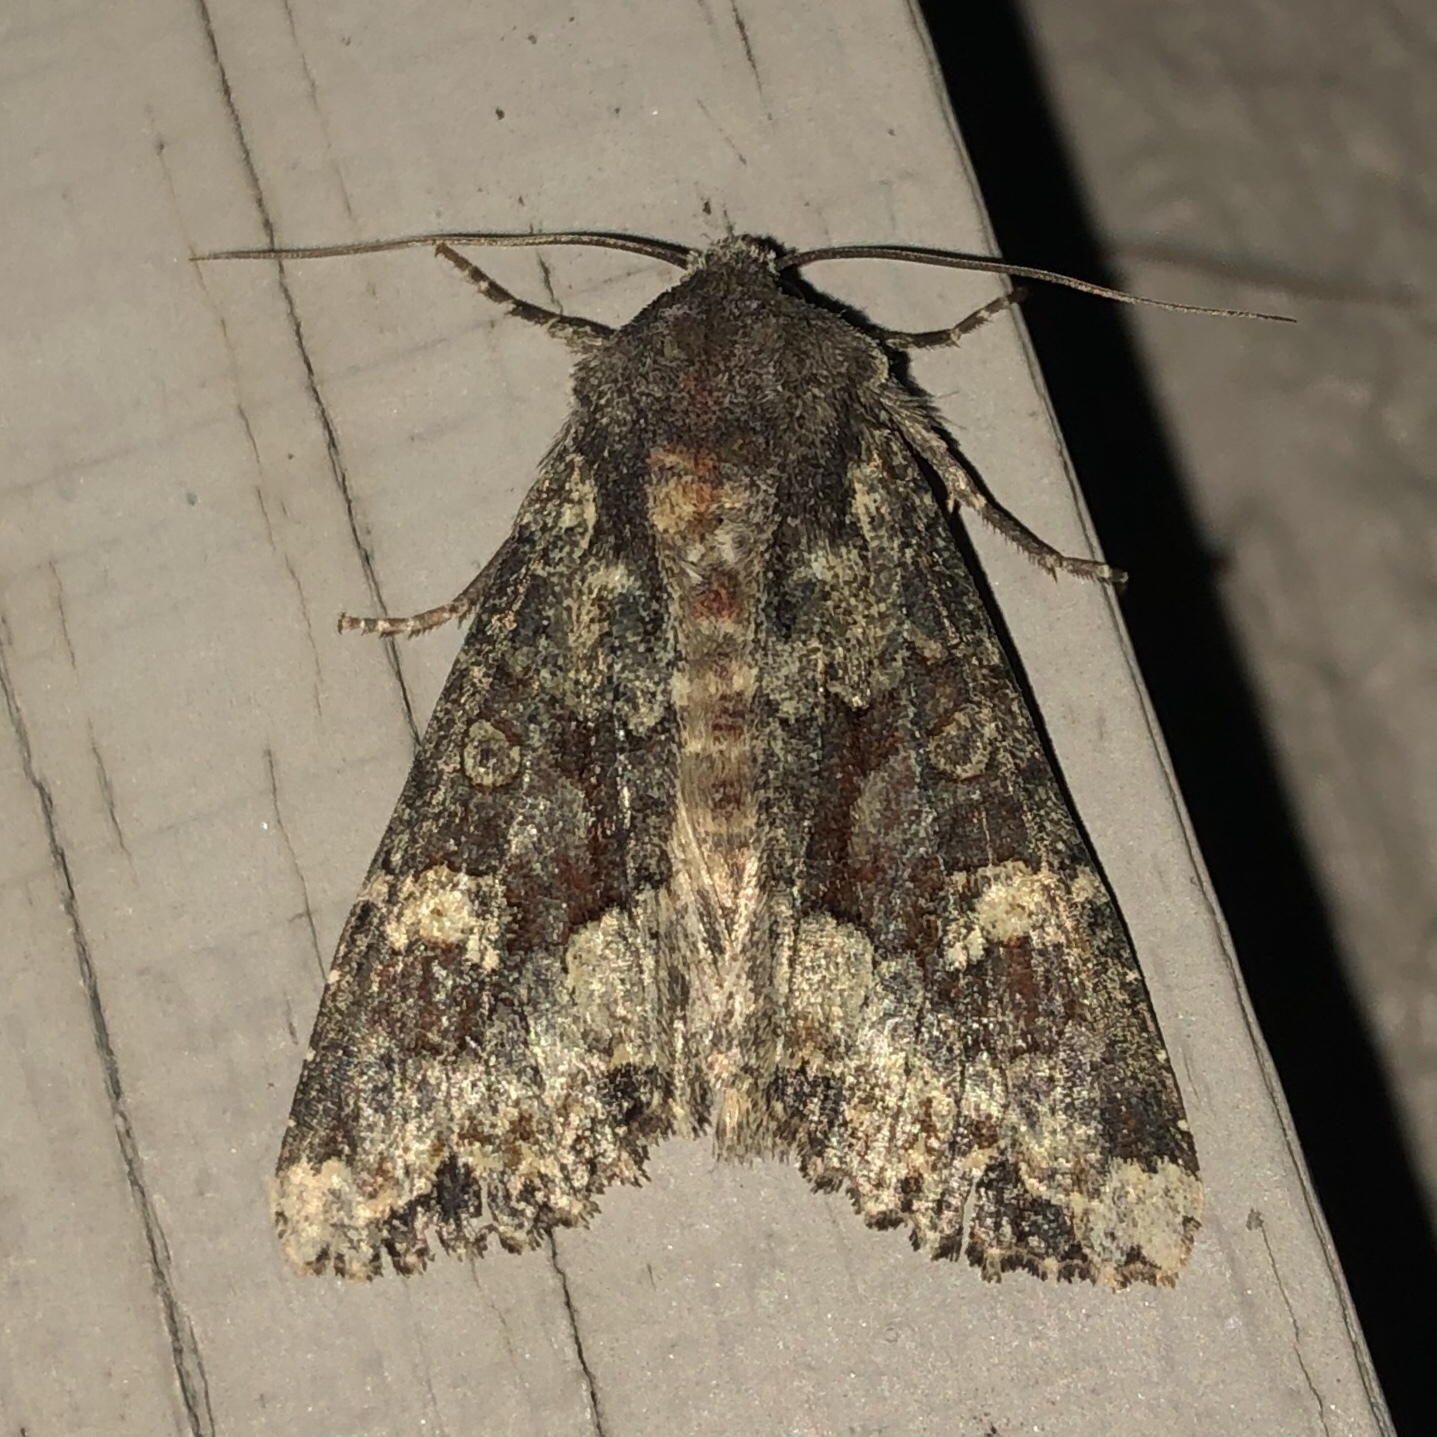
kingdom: Animalia
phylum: Arthropoda
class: Insecta
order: Lepidoptera
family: Noctuidae
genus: Apamea
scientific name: Apamea amputatrix
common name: Yellow-headed cutworm moth
